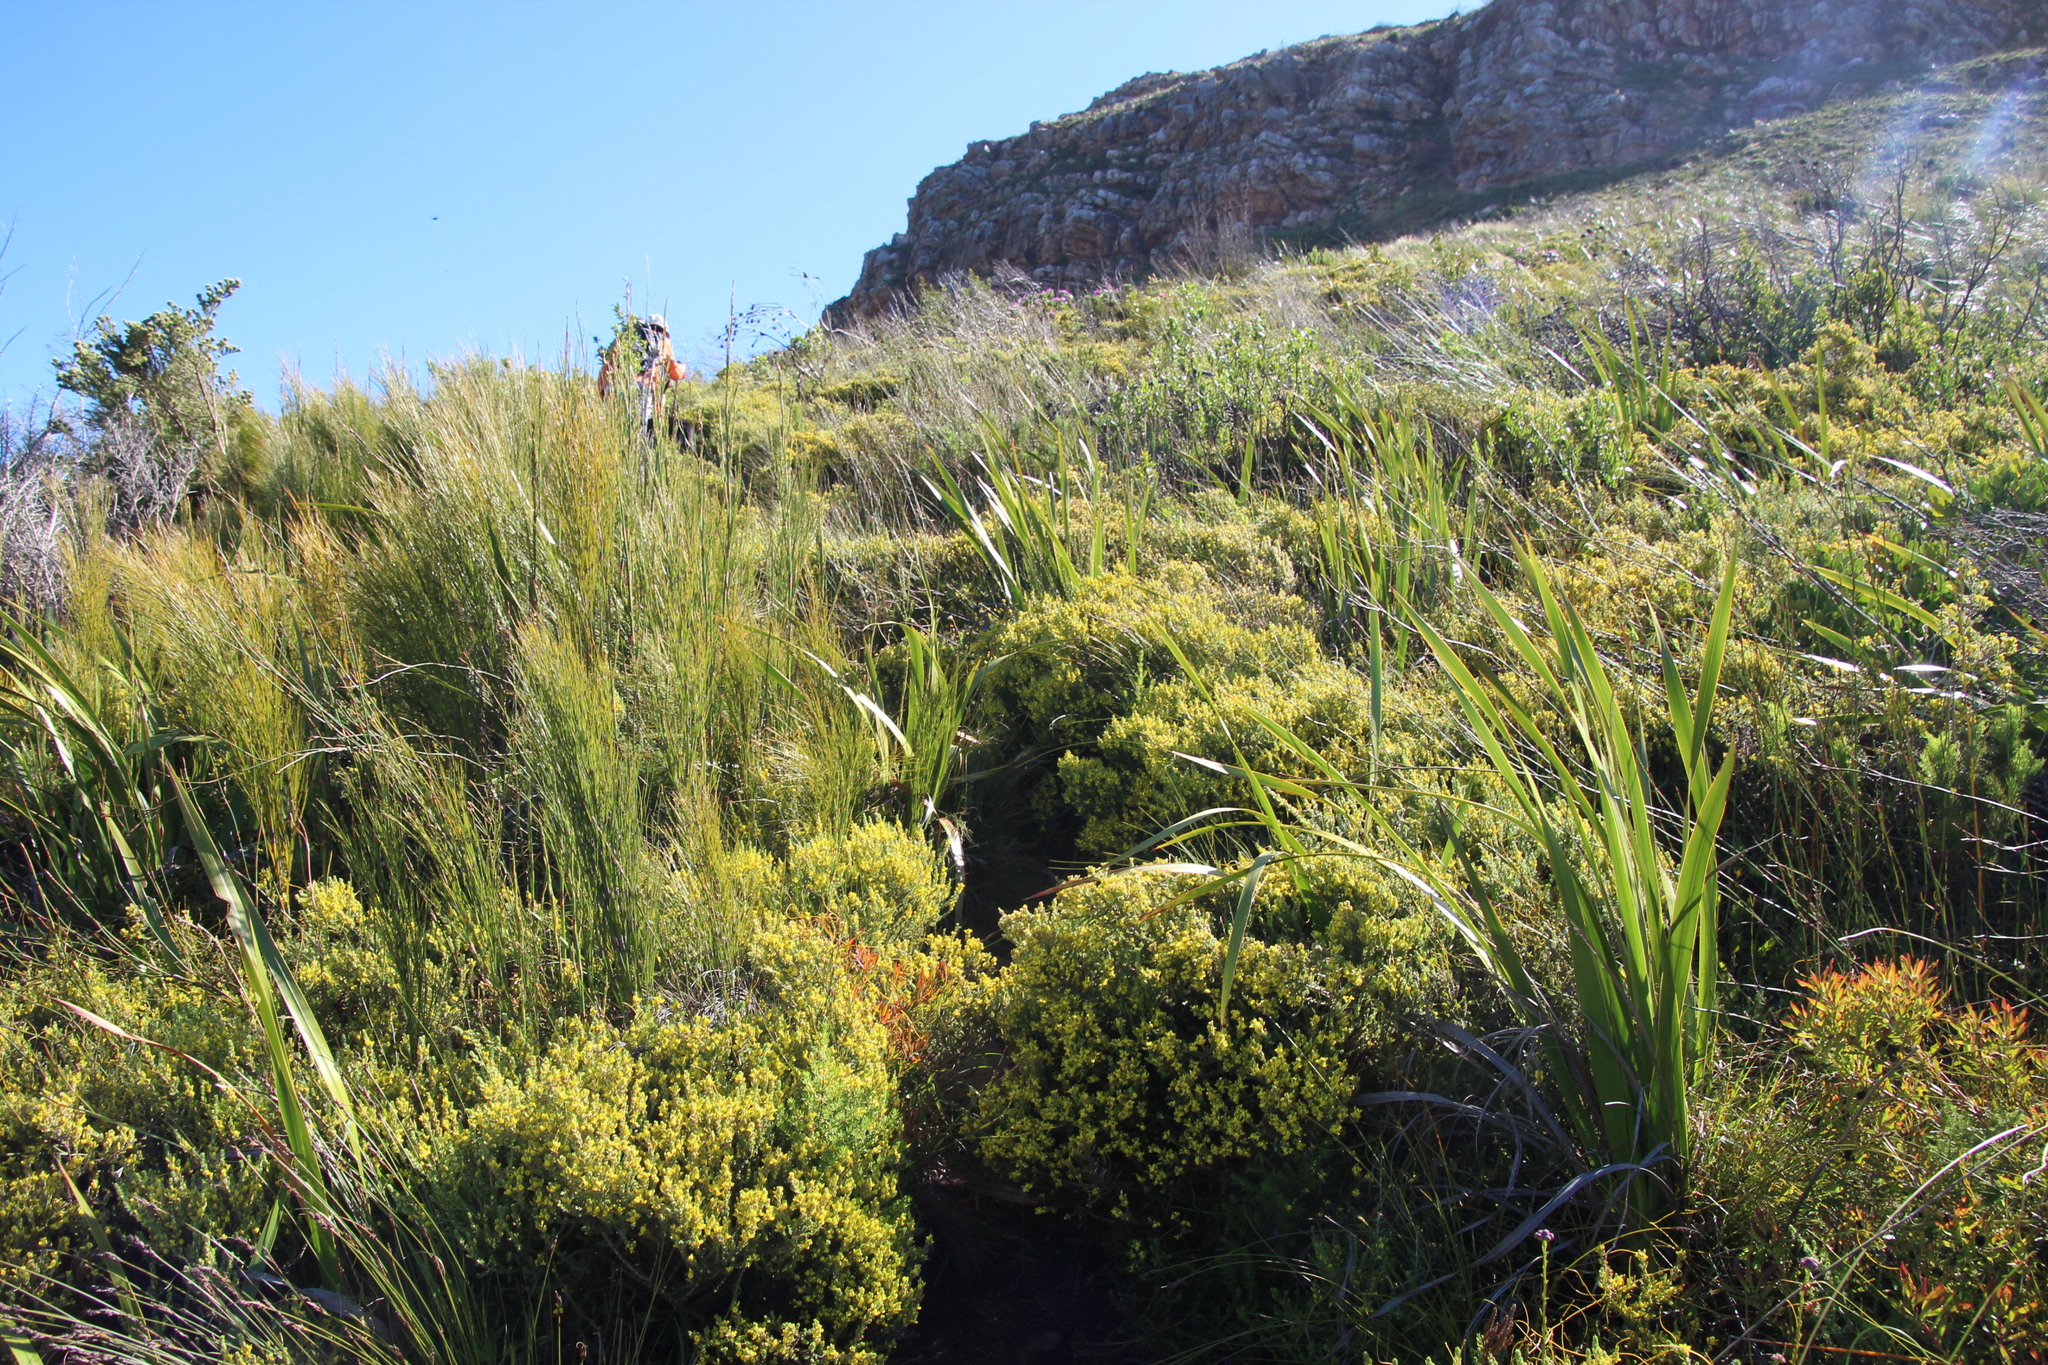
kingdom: Plantae
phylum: Tracheophyta
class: Magnoliopsida
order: Fabales
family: Fabaceae
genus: Aspalathus
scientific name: Aspalathus ericifolia
